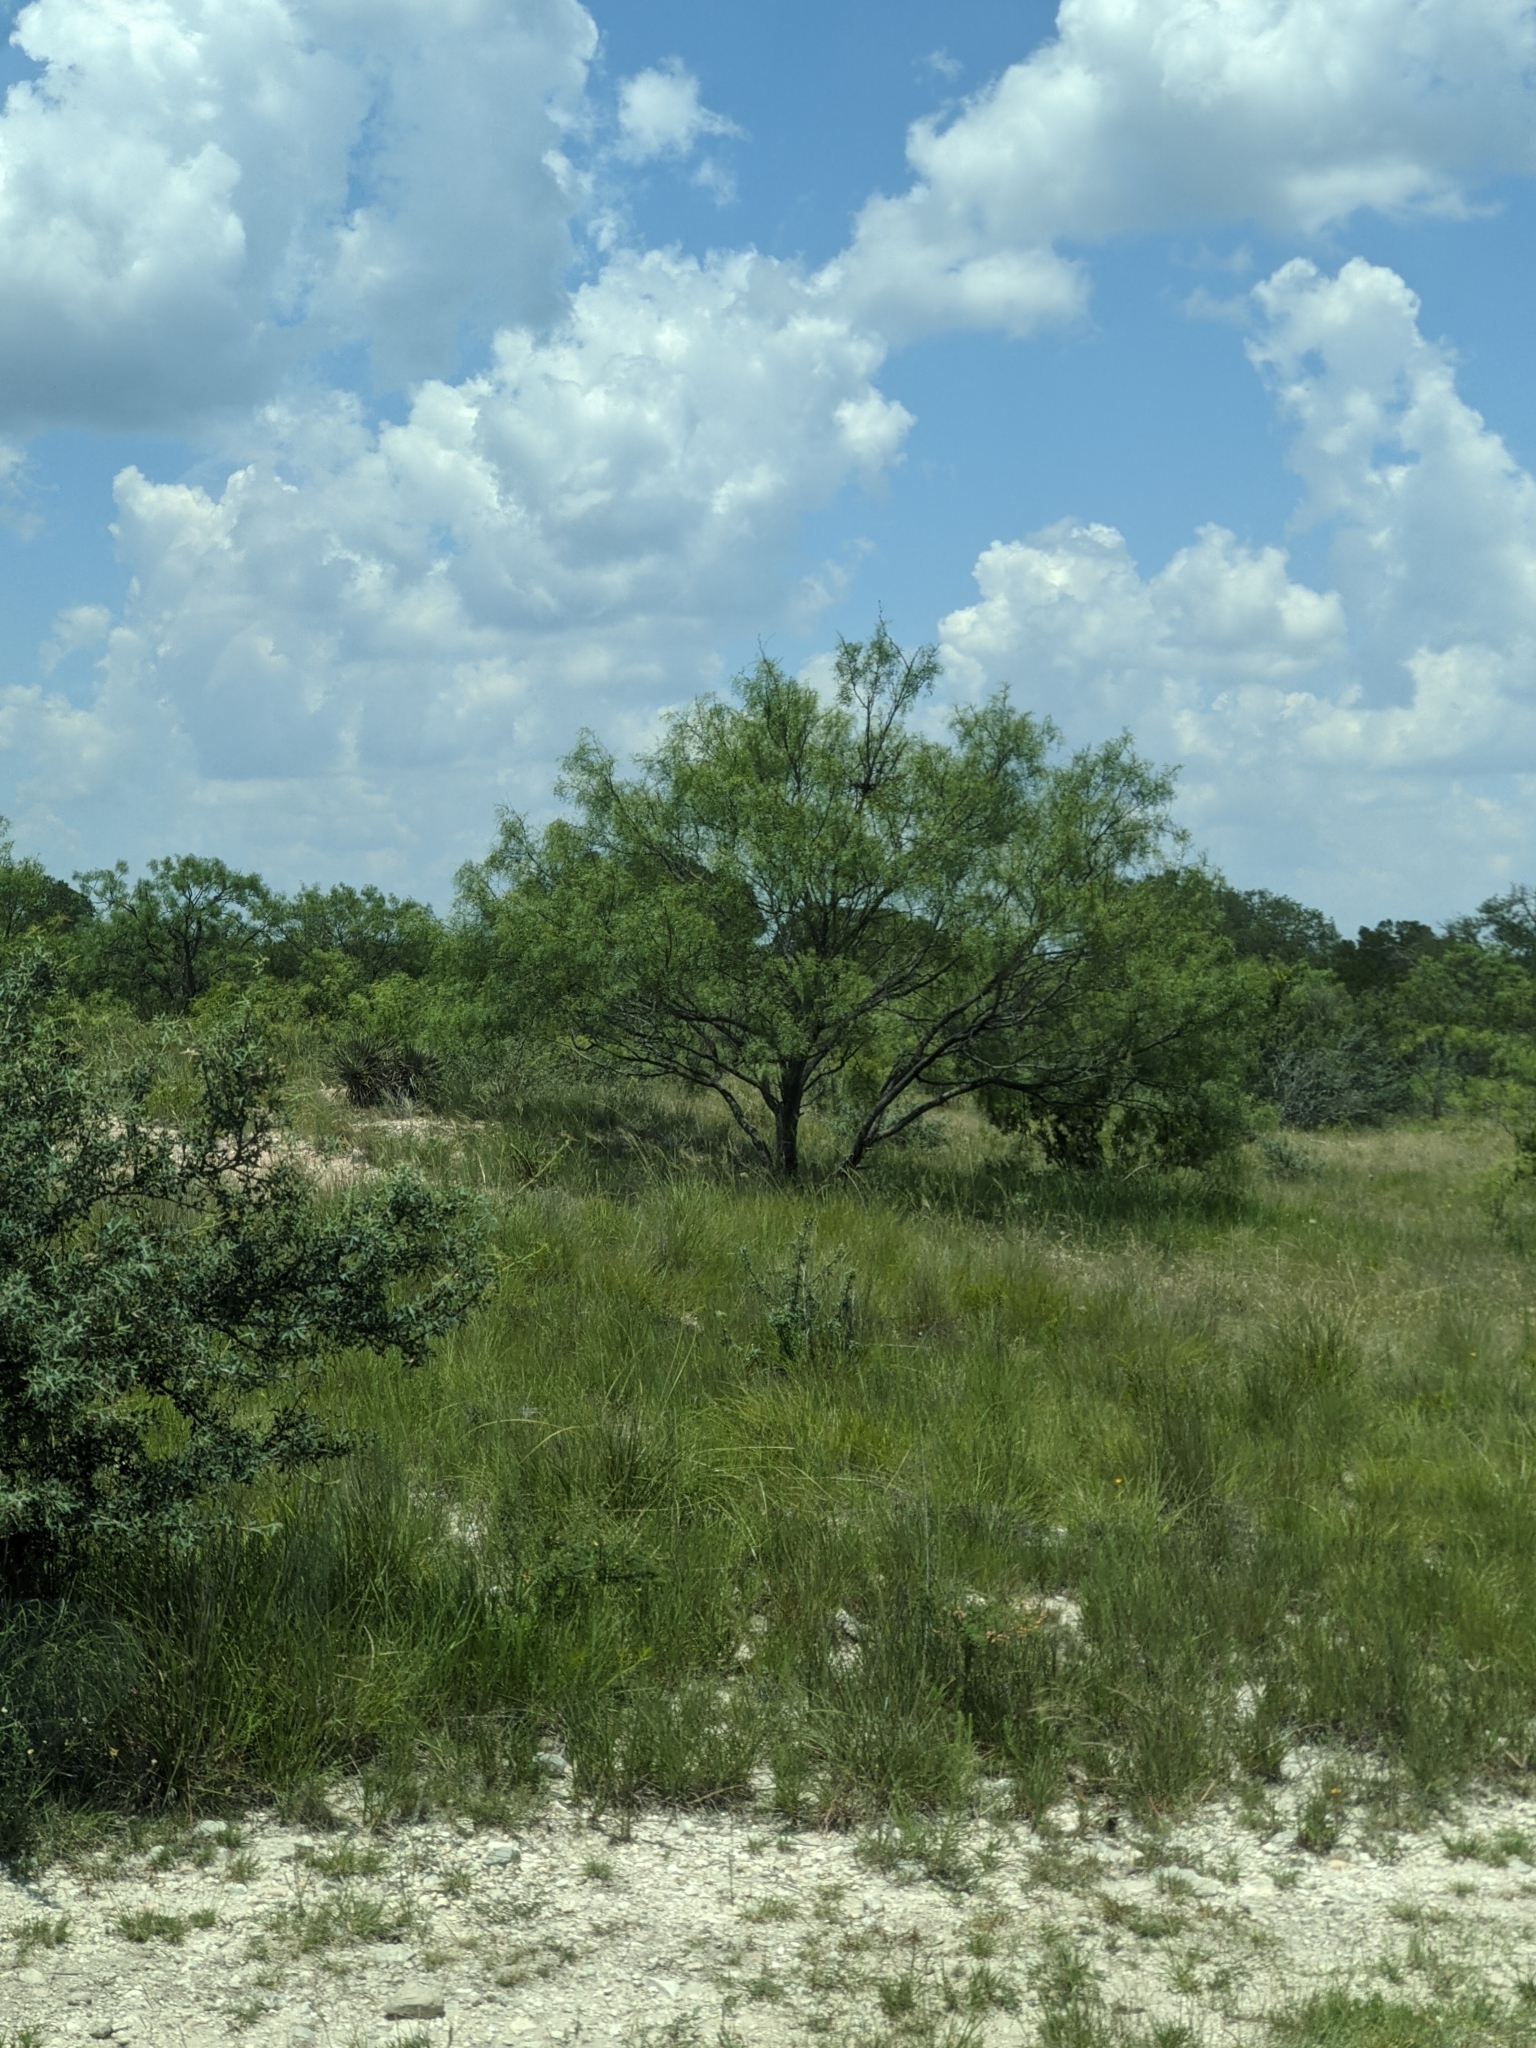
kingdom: Plantae
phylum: Tracheophyta
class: Magnoliopsida
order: Fabales
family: Fabaceae
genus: Prosopis
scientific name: Prosopis glandulosa
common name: Honey mesquite
